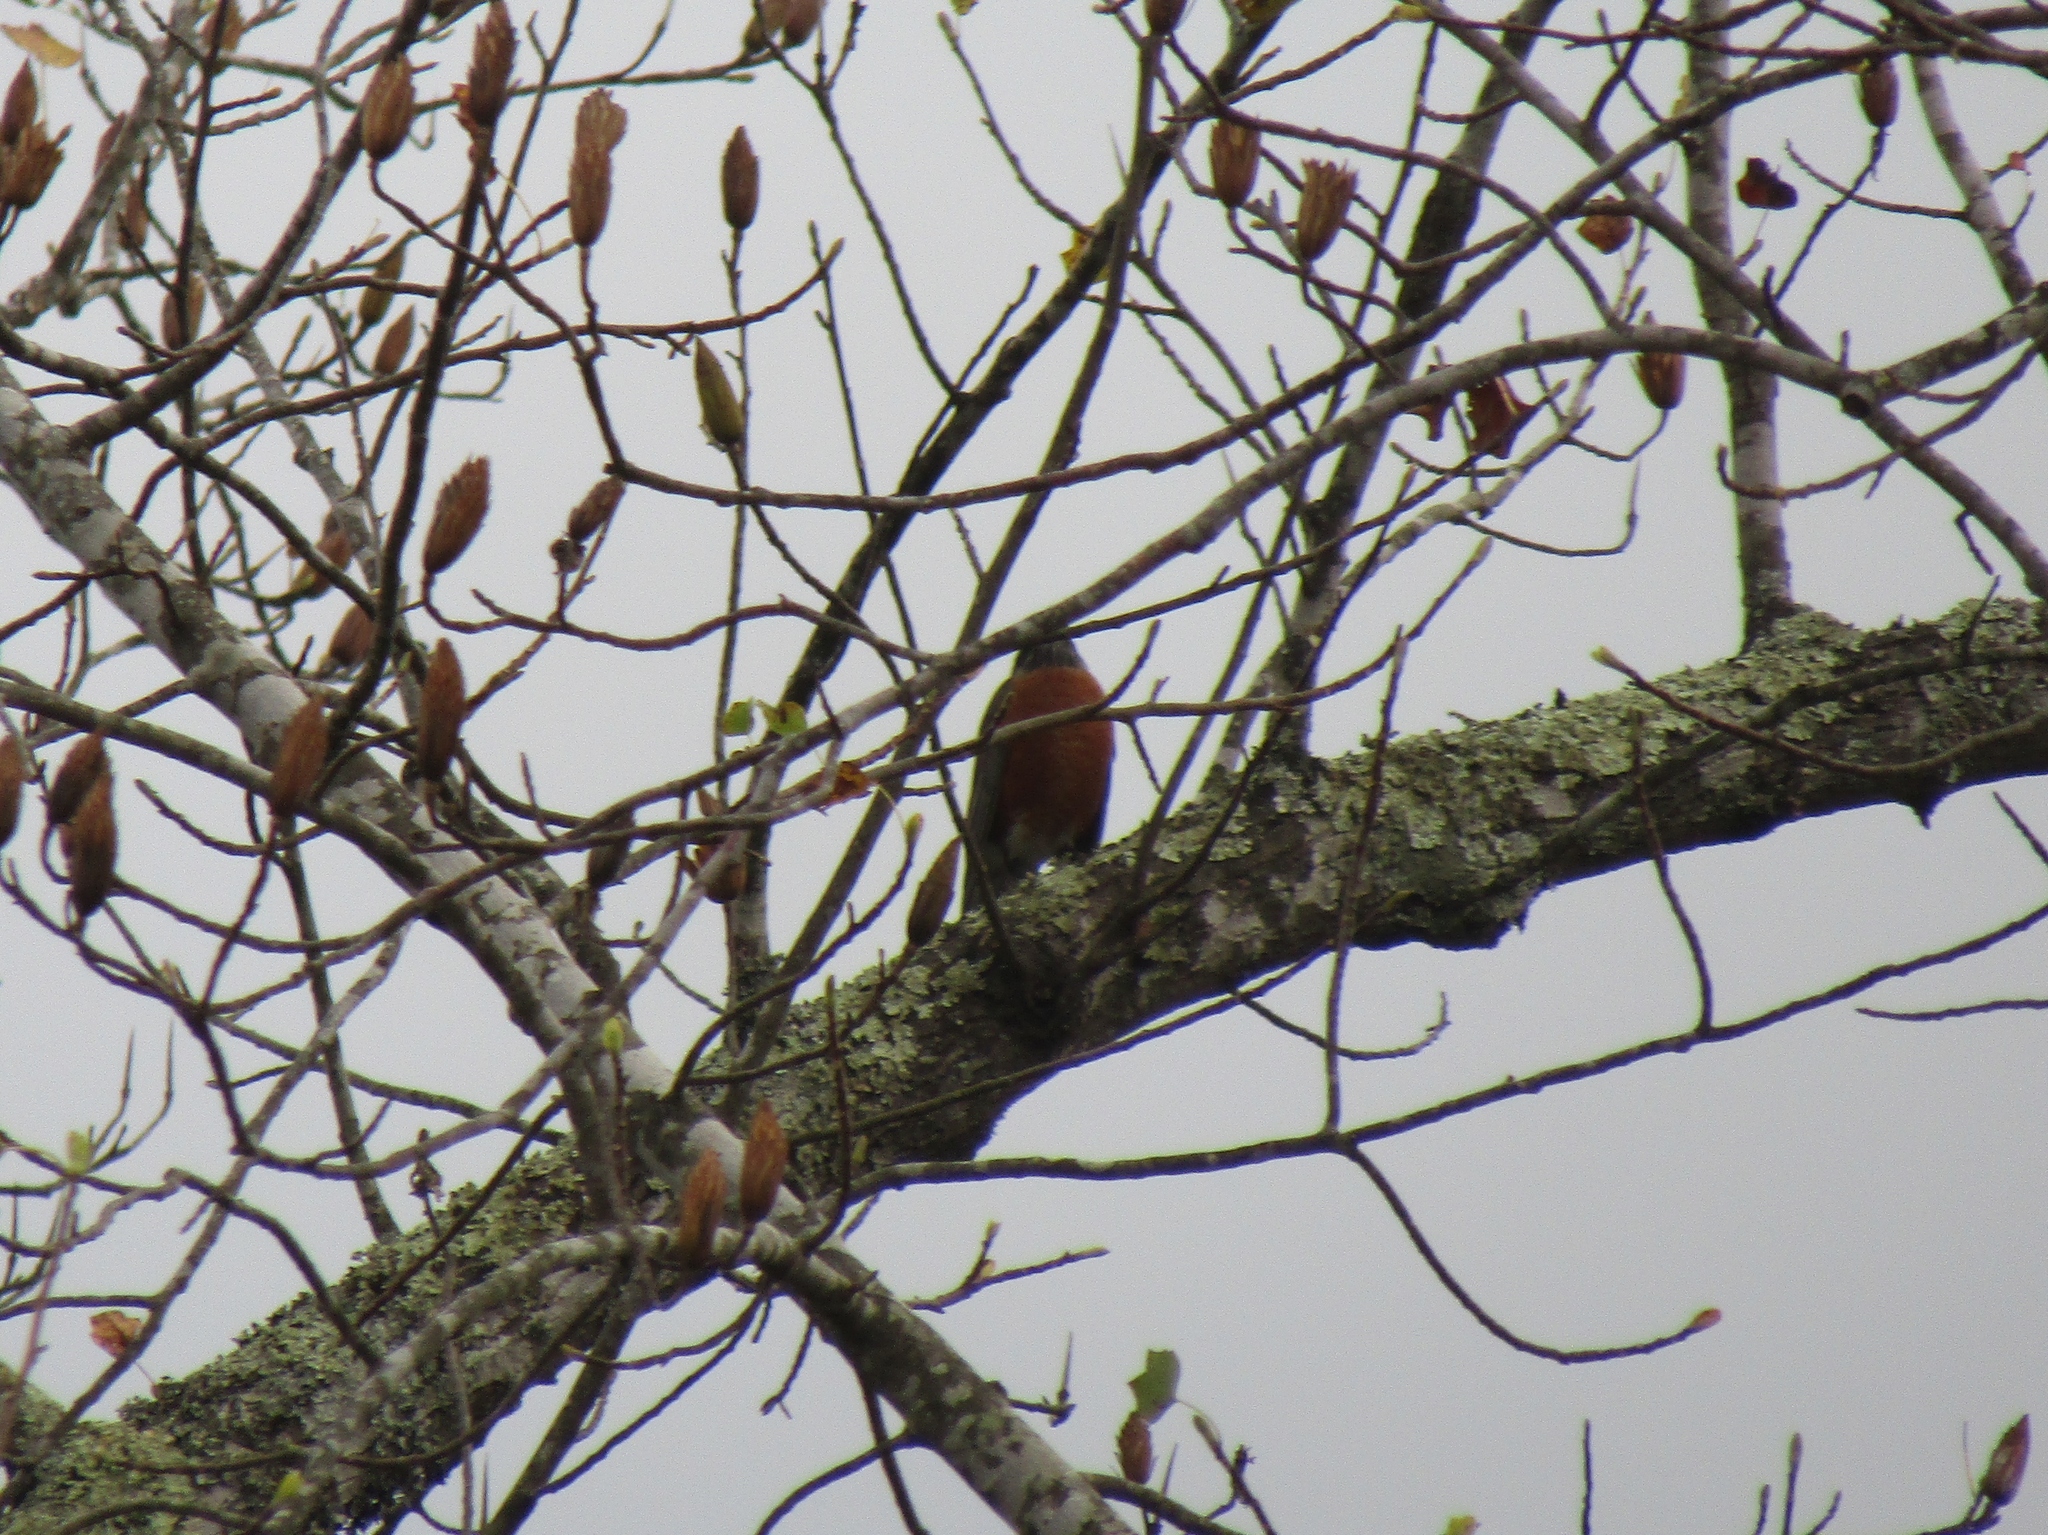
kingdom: Animalia
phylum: Chordata
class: Aves
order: Passeriformes
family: Turdidae
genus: Turdus
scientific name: Turdus migratorius
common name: American robin
